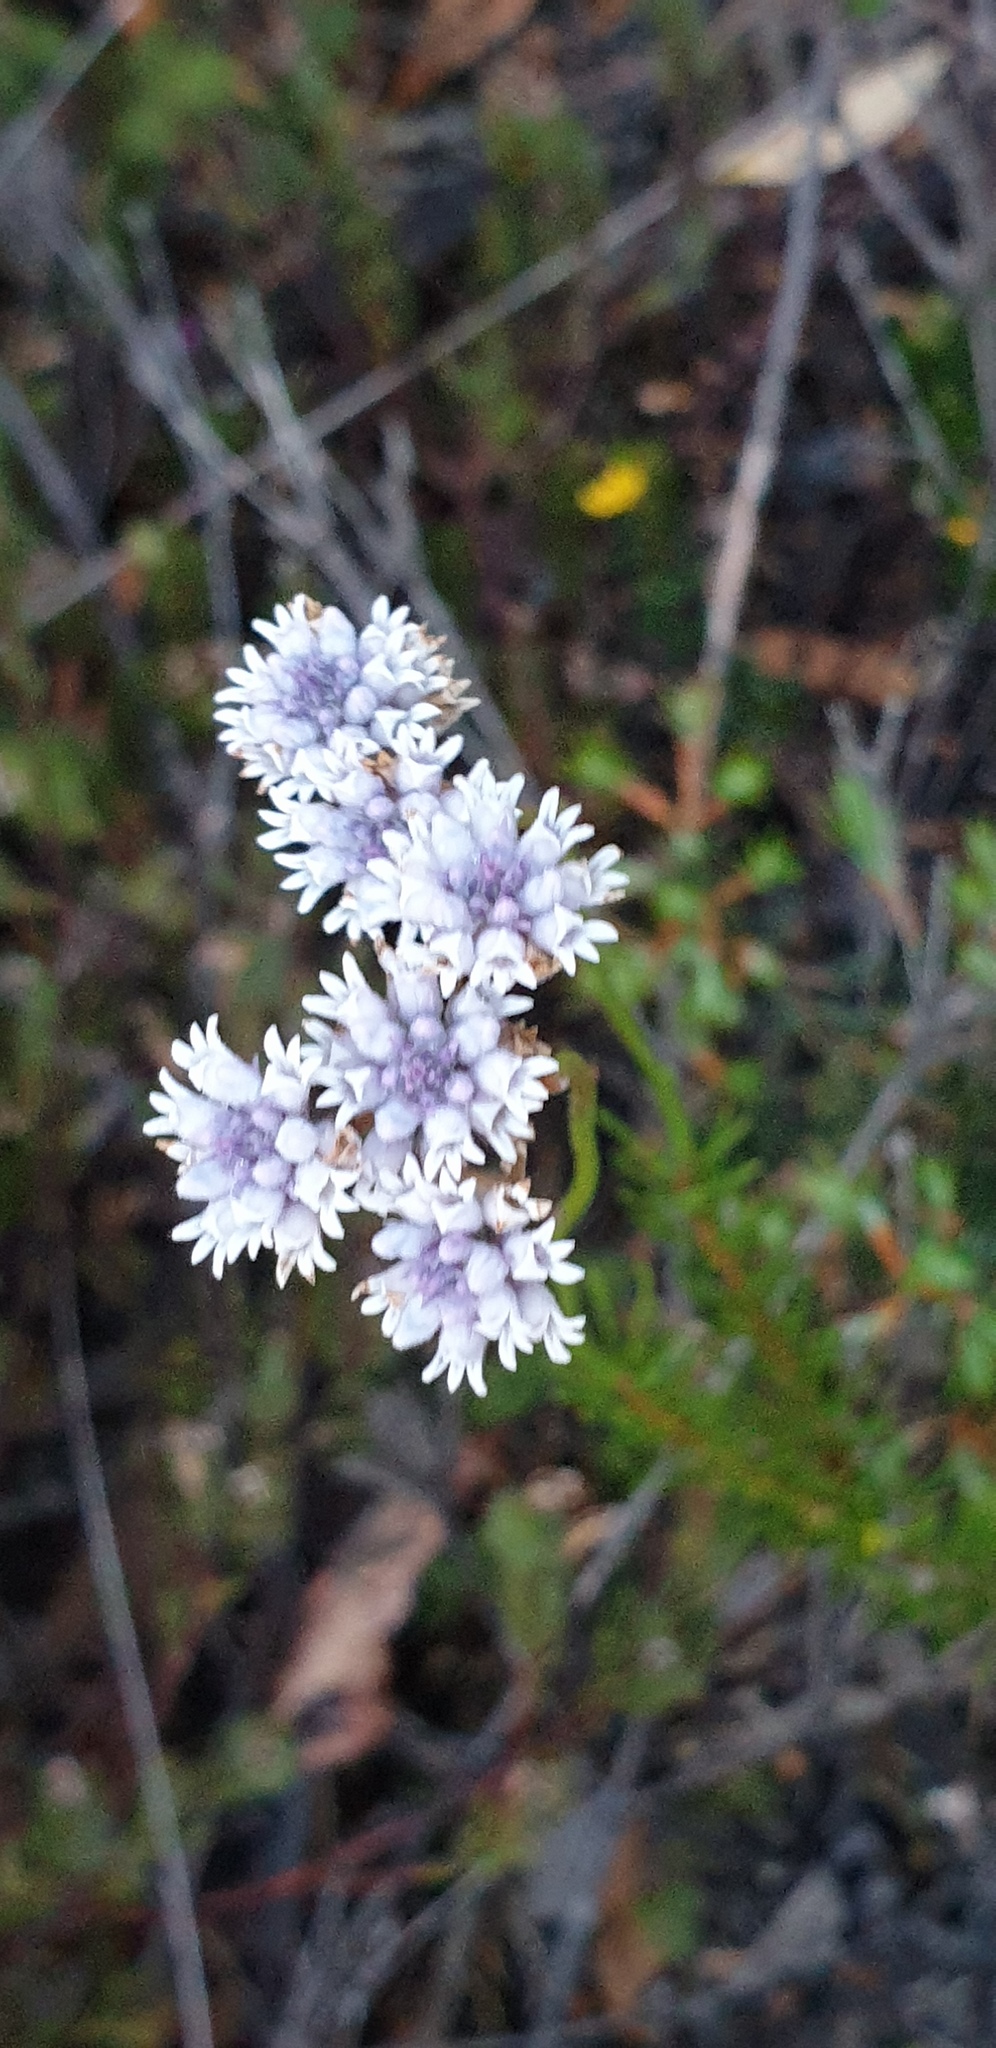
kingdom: Plantae
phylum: Tracheophyta
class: Magnoliopsida
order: Proteales
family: Proteaceae
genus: Conospermum
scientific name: Conospermum patens
